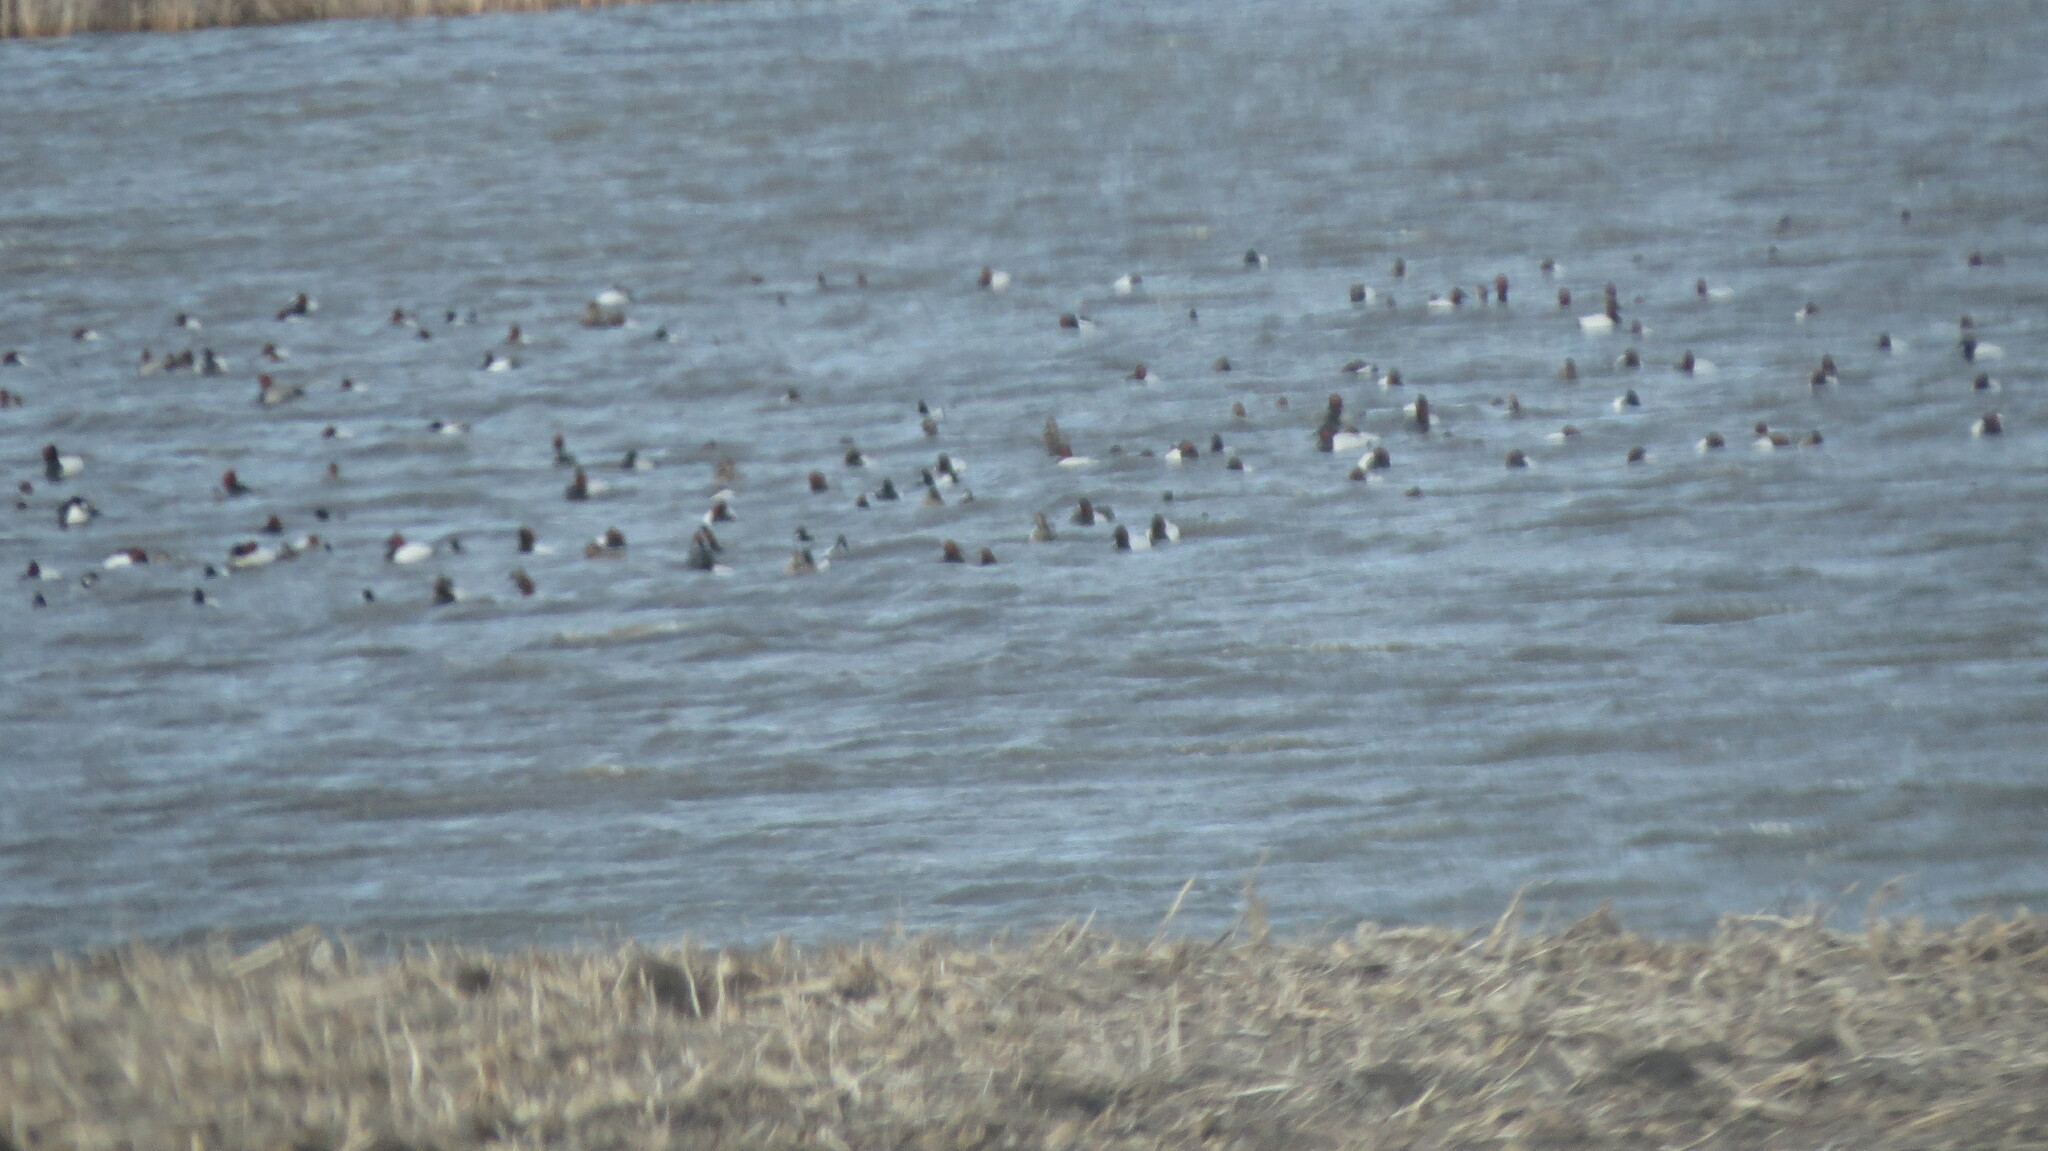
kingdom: Animalia
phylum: Chordata
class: Aves
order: Anseriformes
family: Anatidae
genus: Aythya
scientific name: Aythya valisineria
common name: Canvasback
